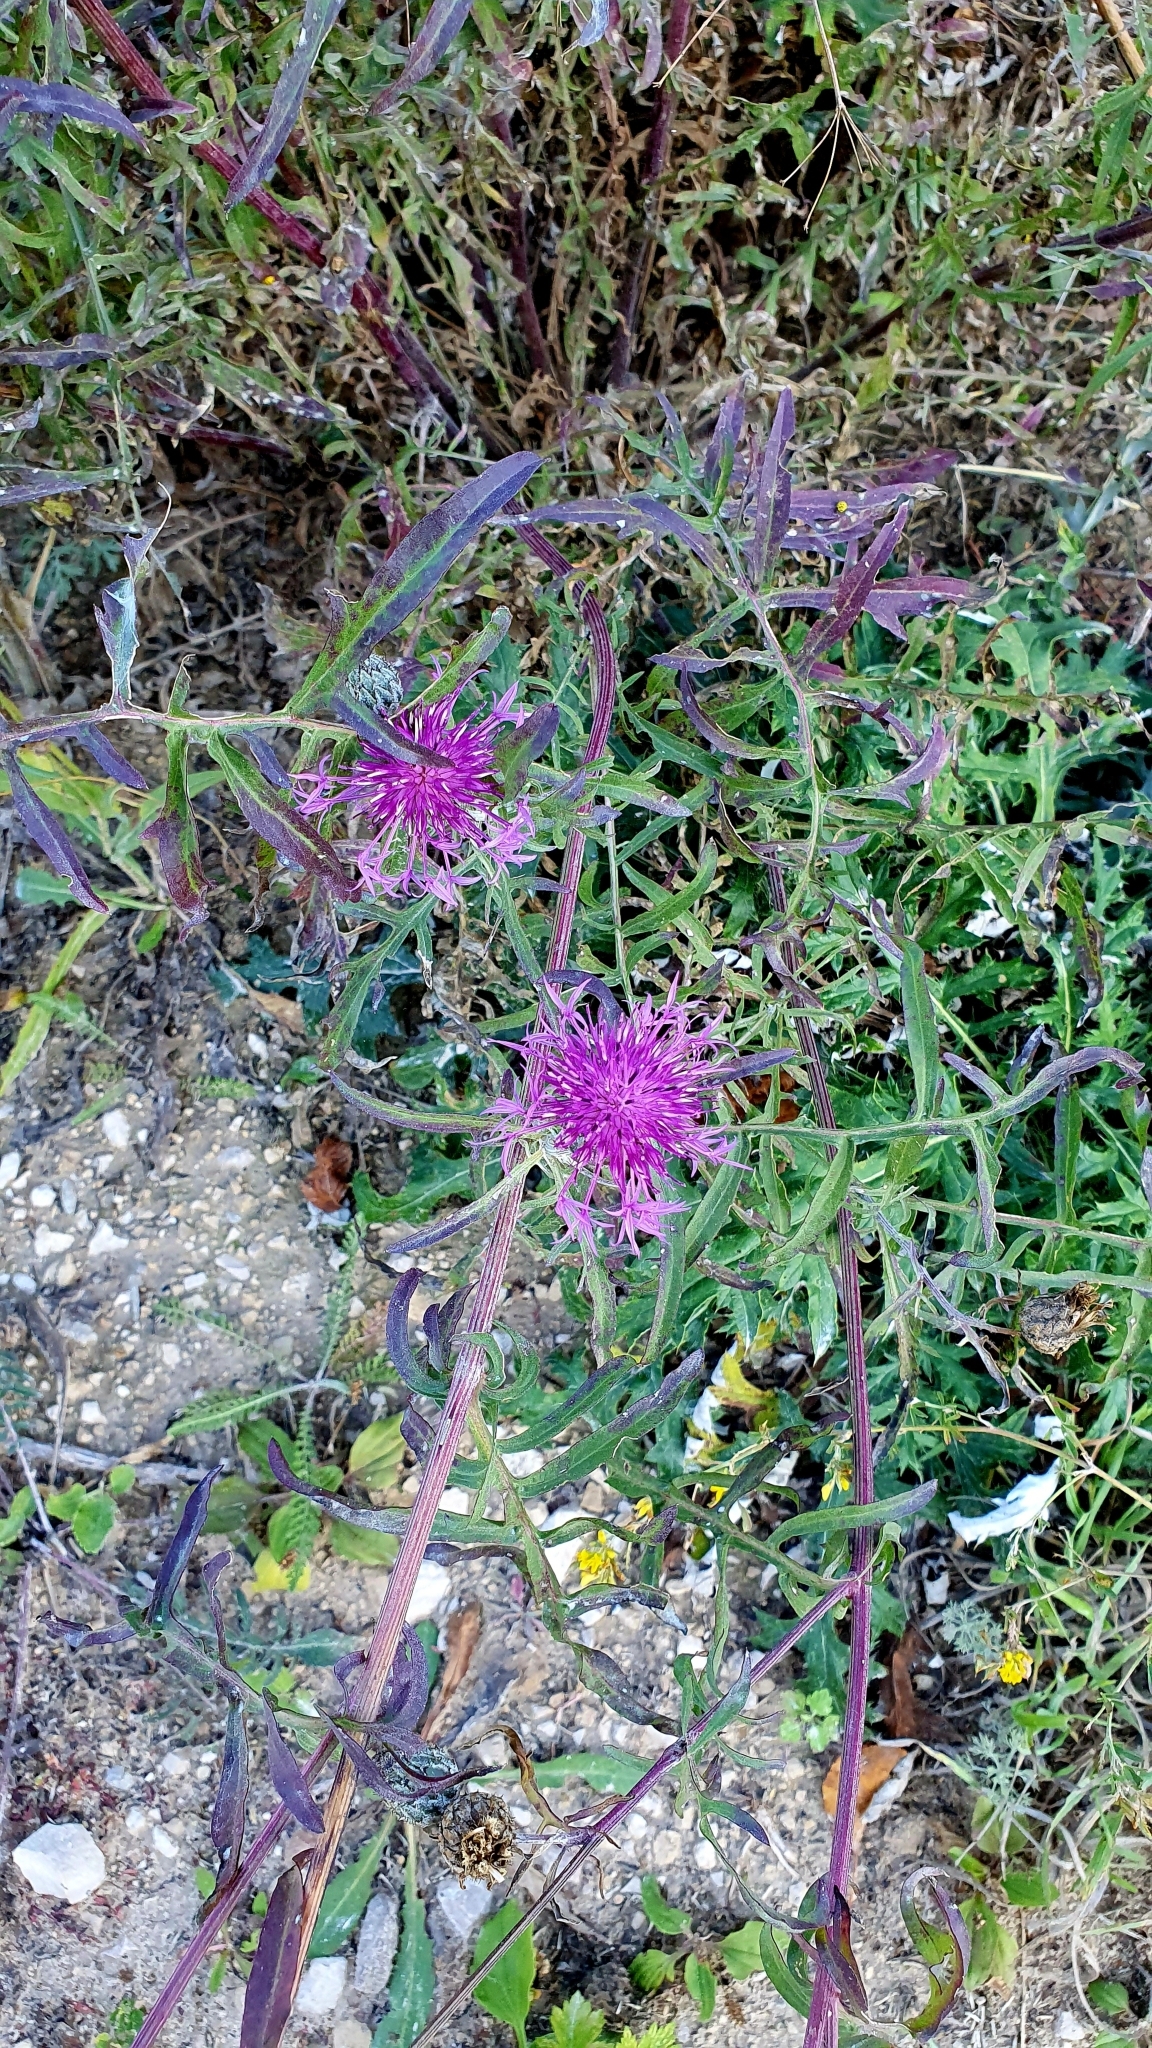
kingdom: Plantae
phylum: Tracheophyta
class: Magnoliopsida
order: Asterales
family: Asteraceae
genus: Centaurea
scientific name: Centaurea scabiosa
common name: Greater knapweed
